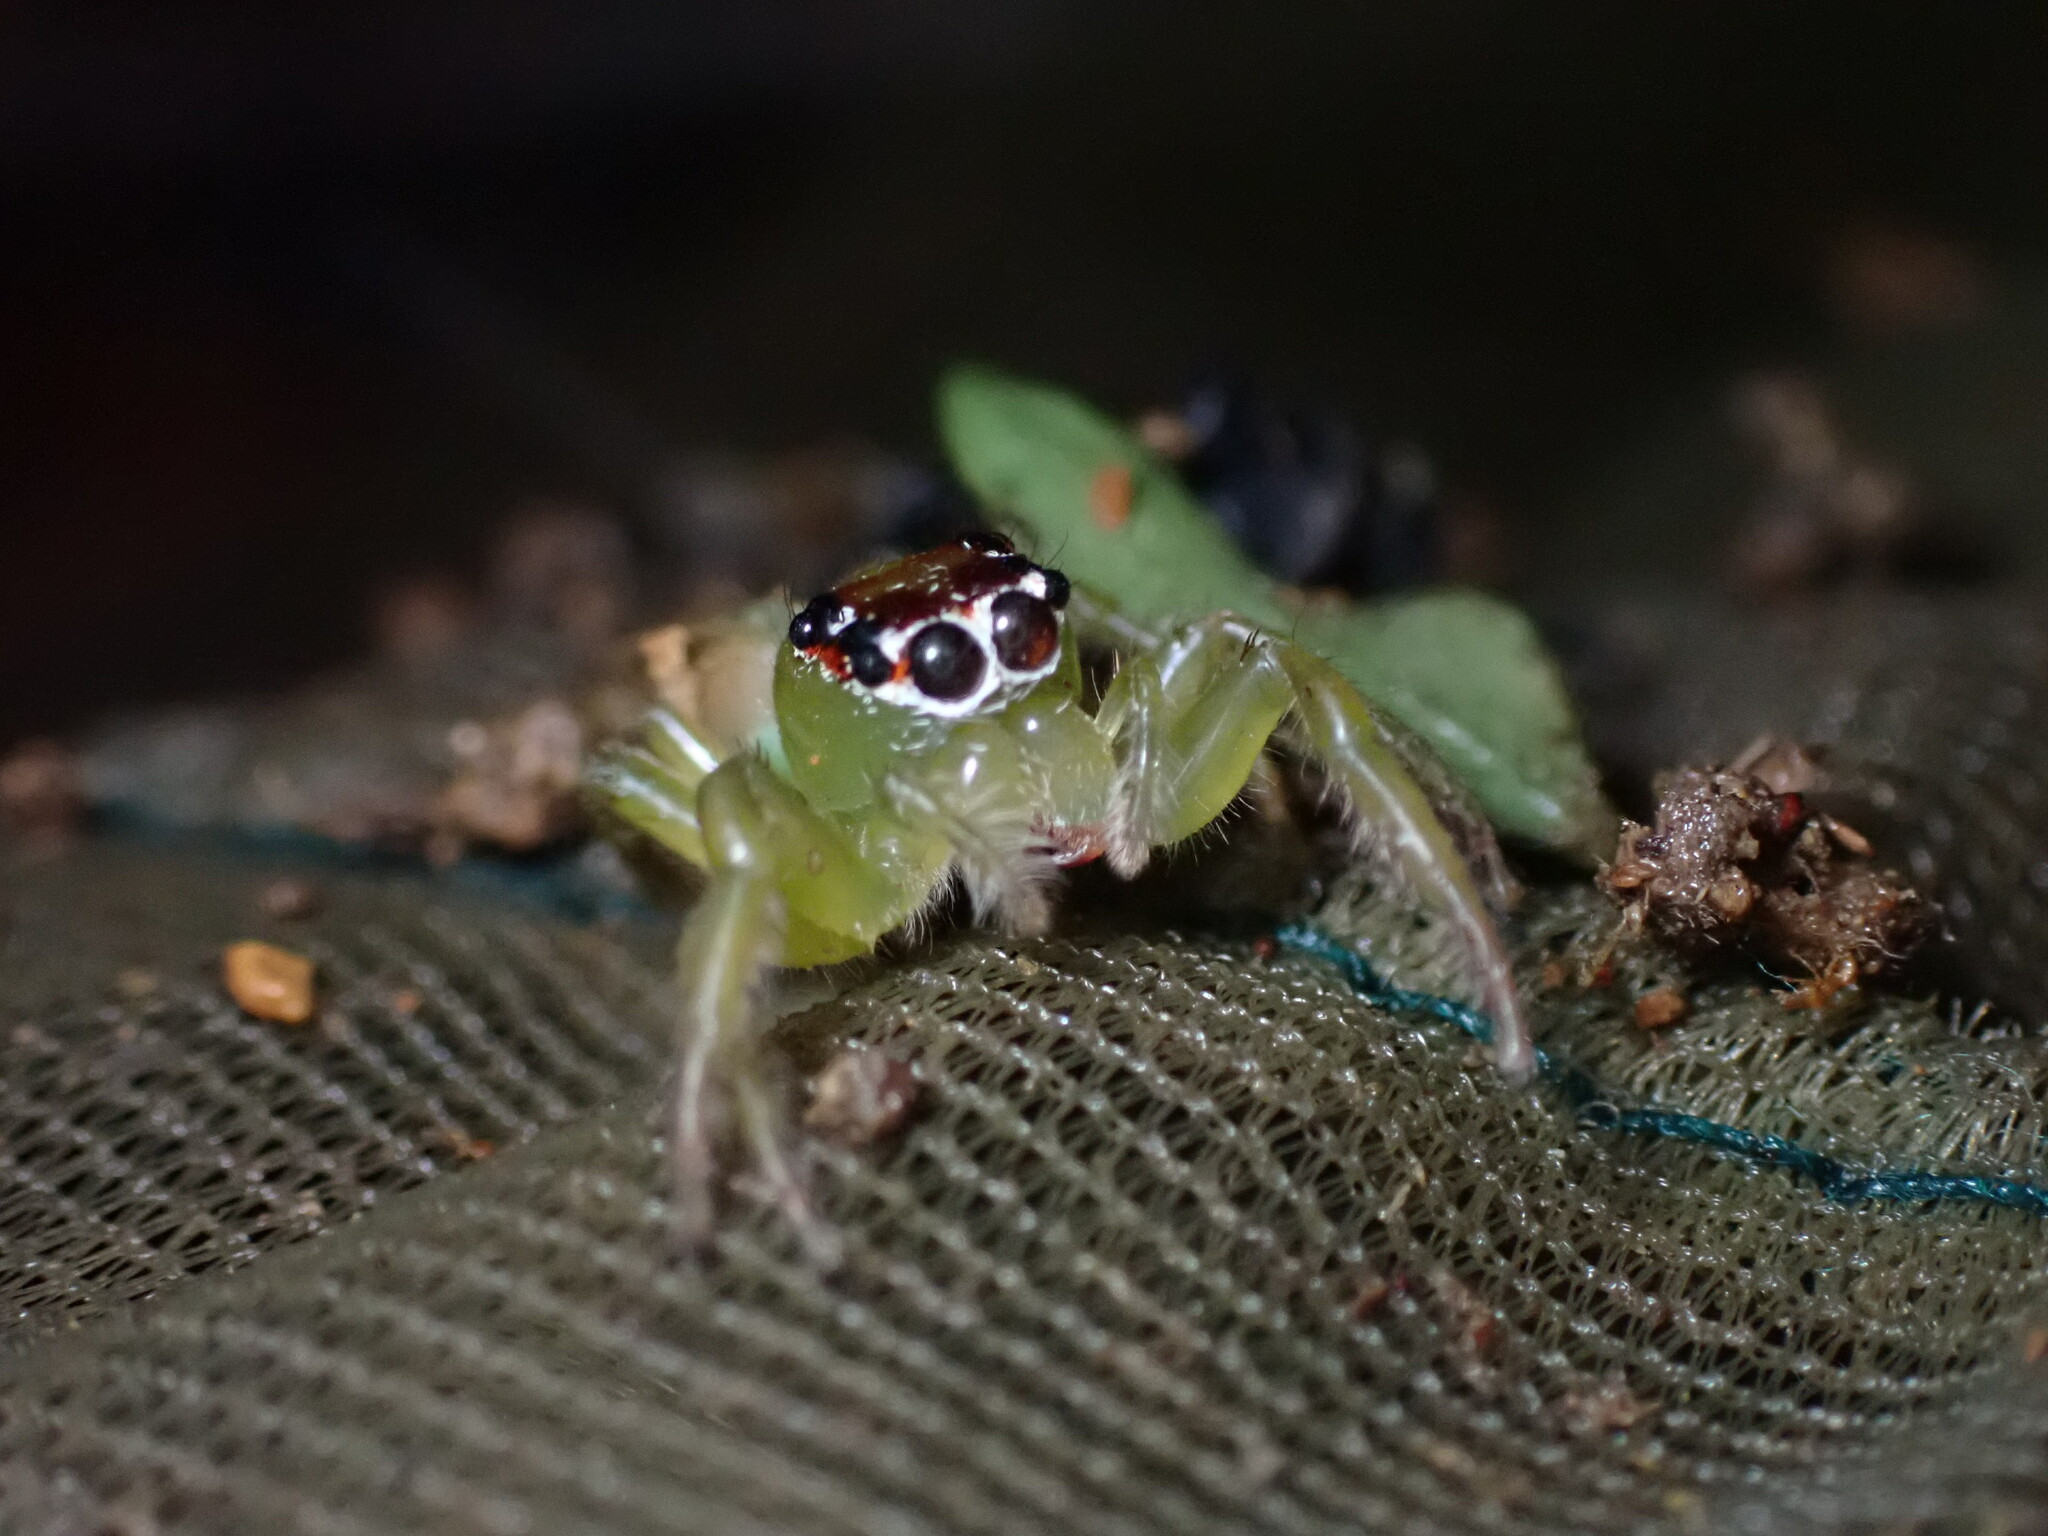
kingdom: Animalia
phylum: Arthropoda
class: Arachnida
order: Araneae
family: Salticidae
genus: Artabrus
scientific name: Artabrus erythrocephalus
